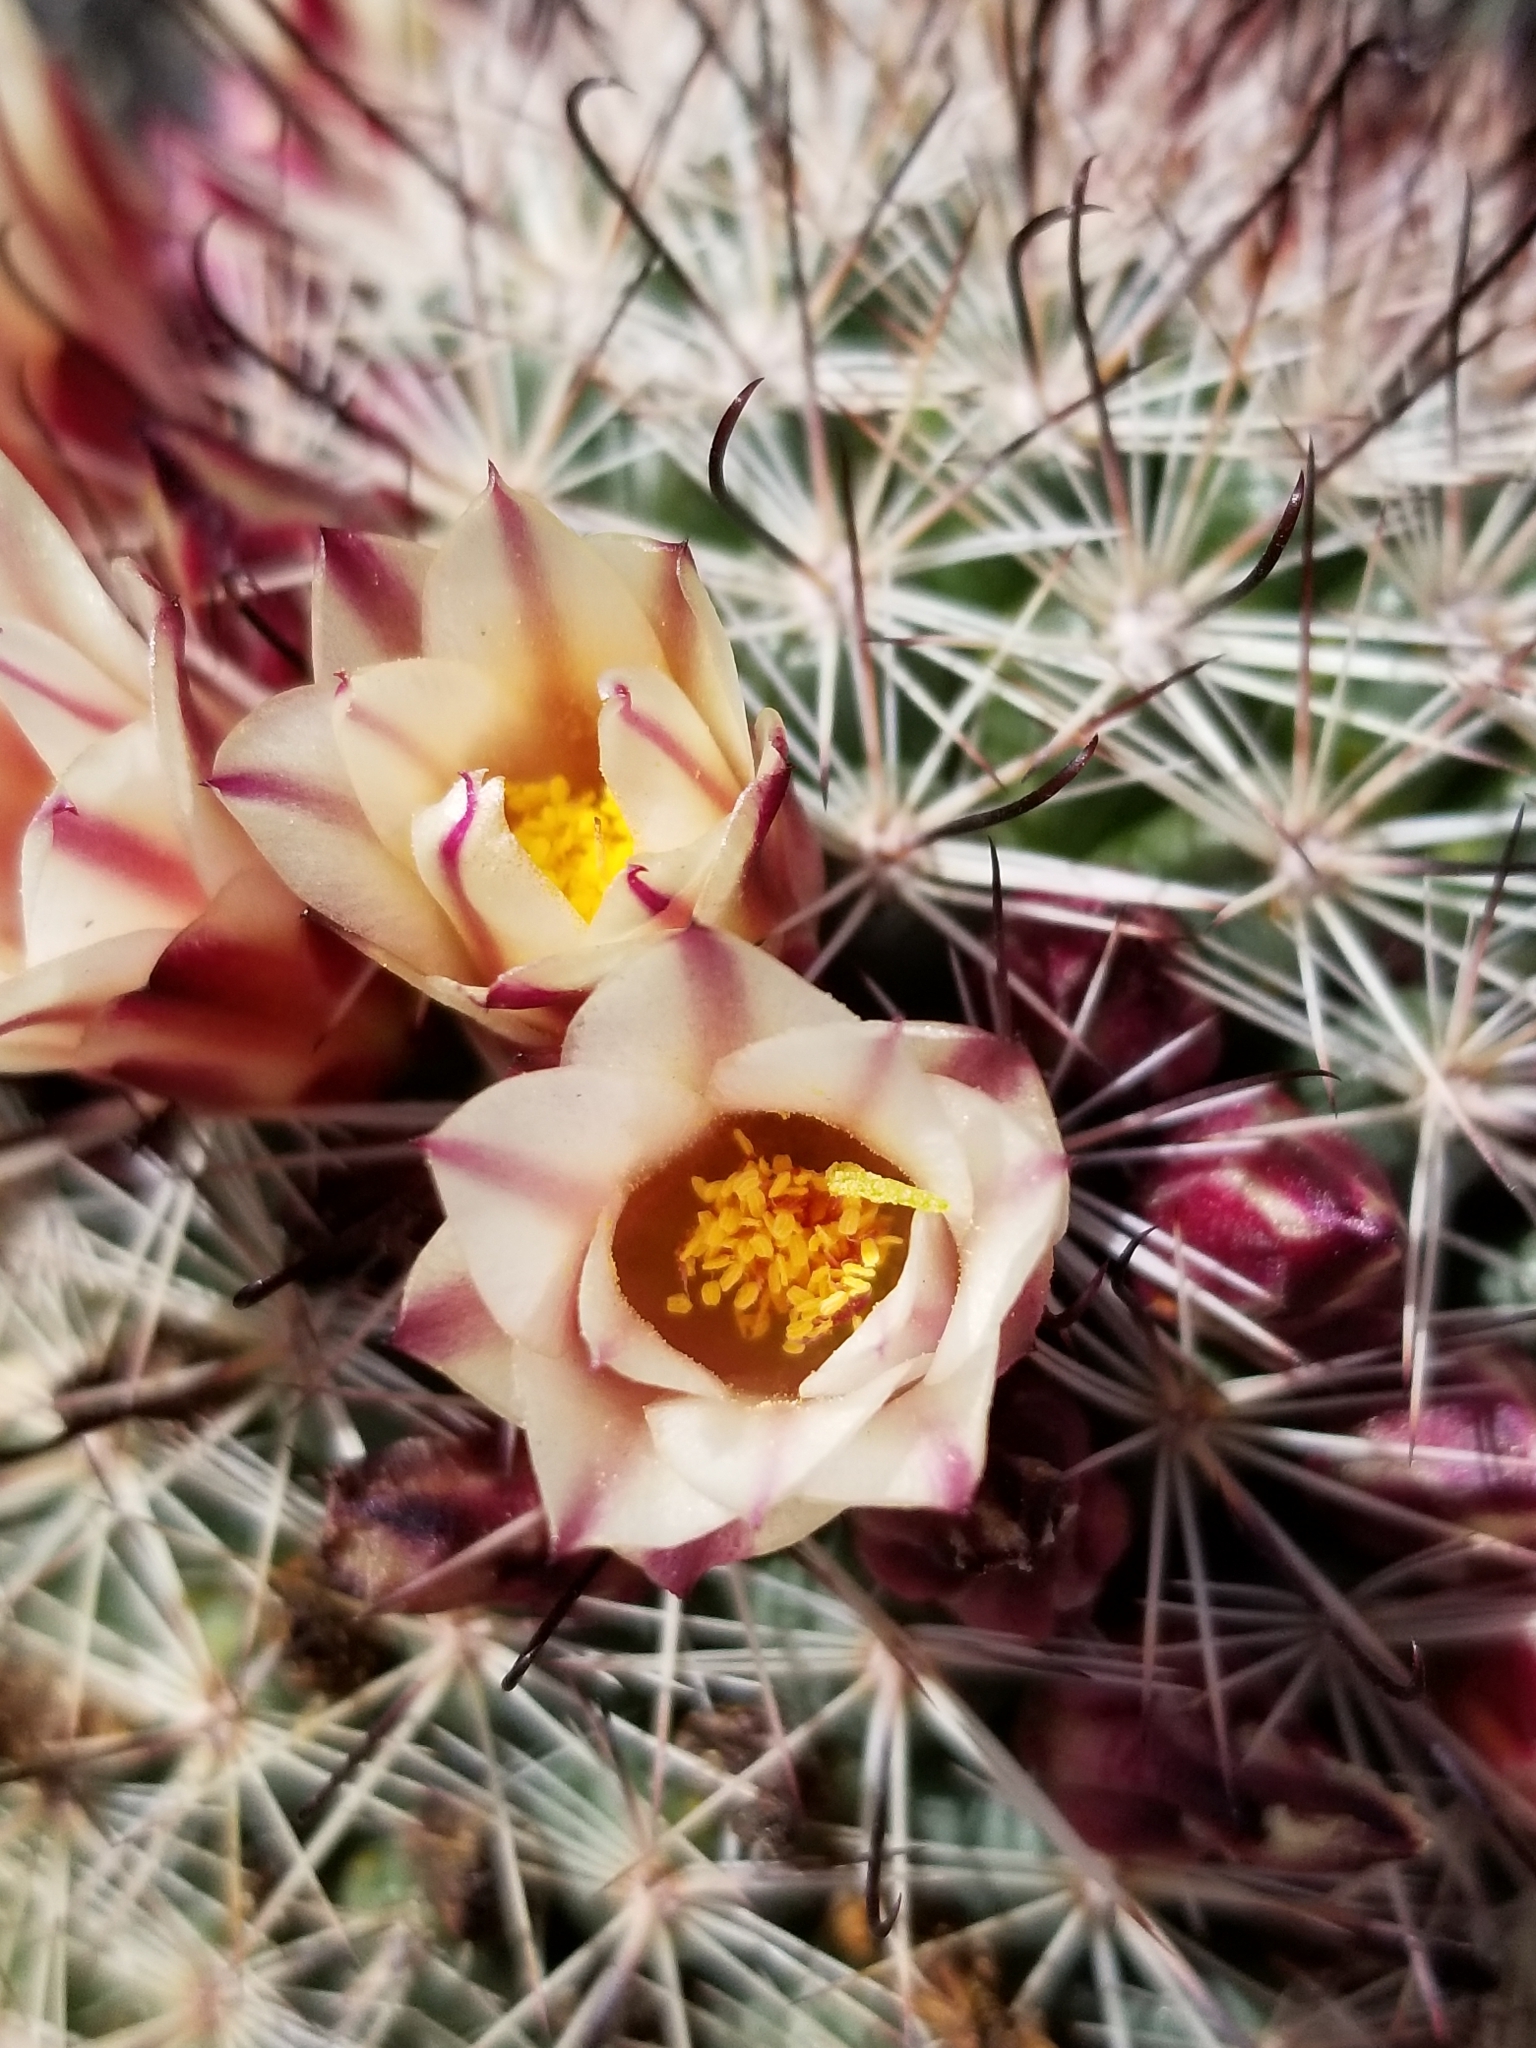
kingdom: Plantae
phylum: Tracheophyta
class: Magnoliopsida
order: Caryophyllales
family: Cactaceae
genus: Cochemiea
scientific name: Cochemiea dioica
